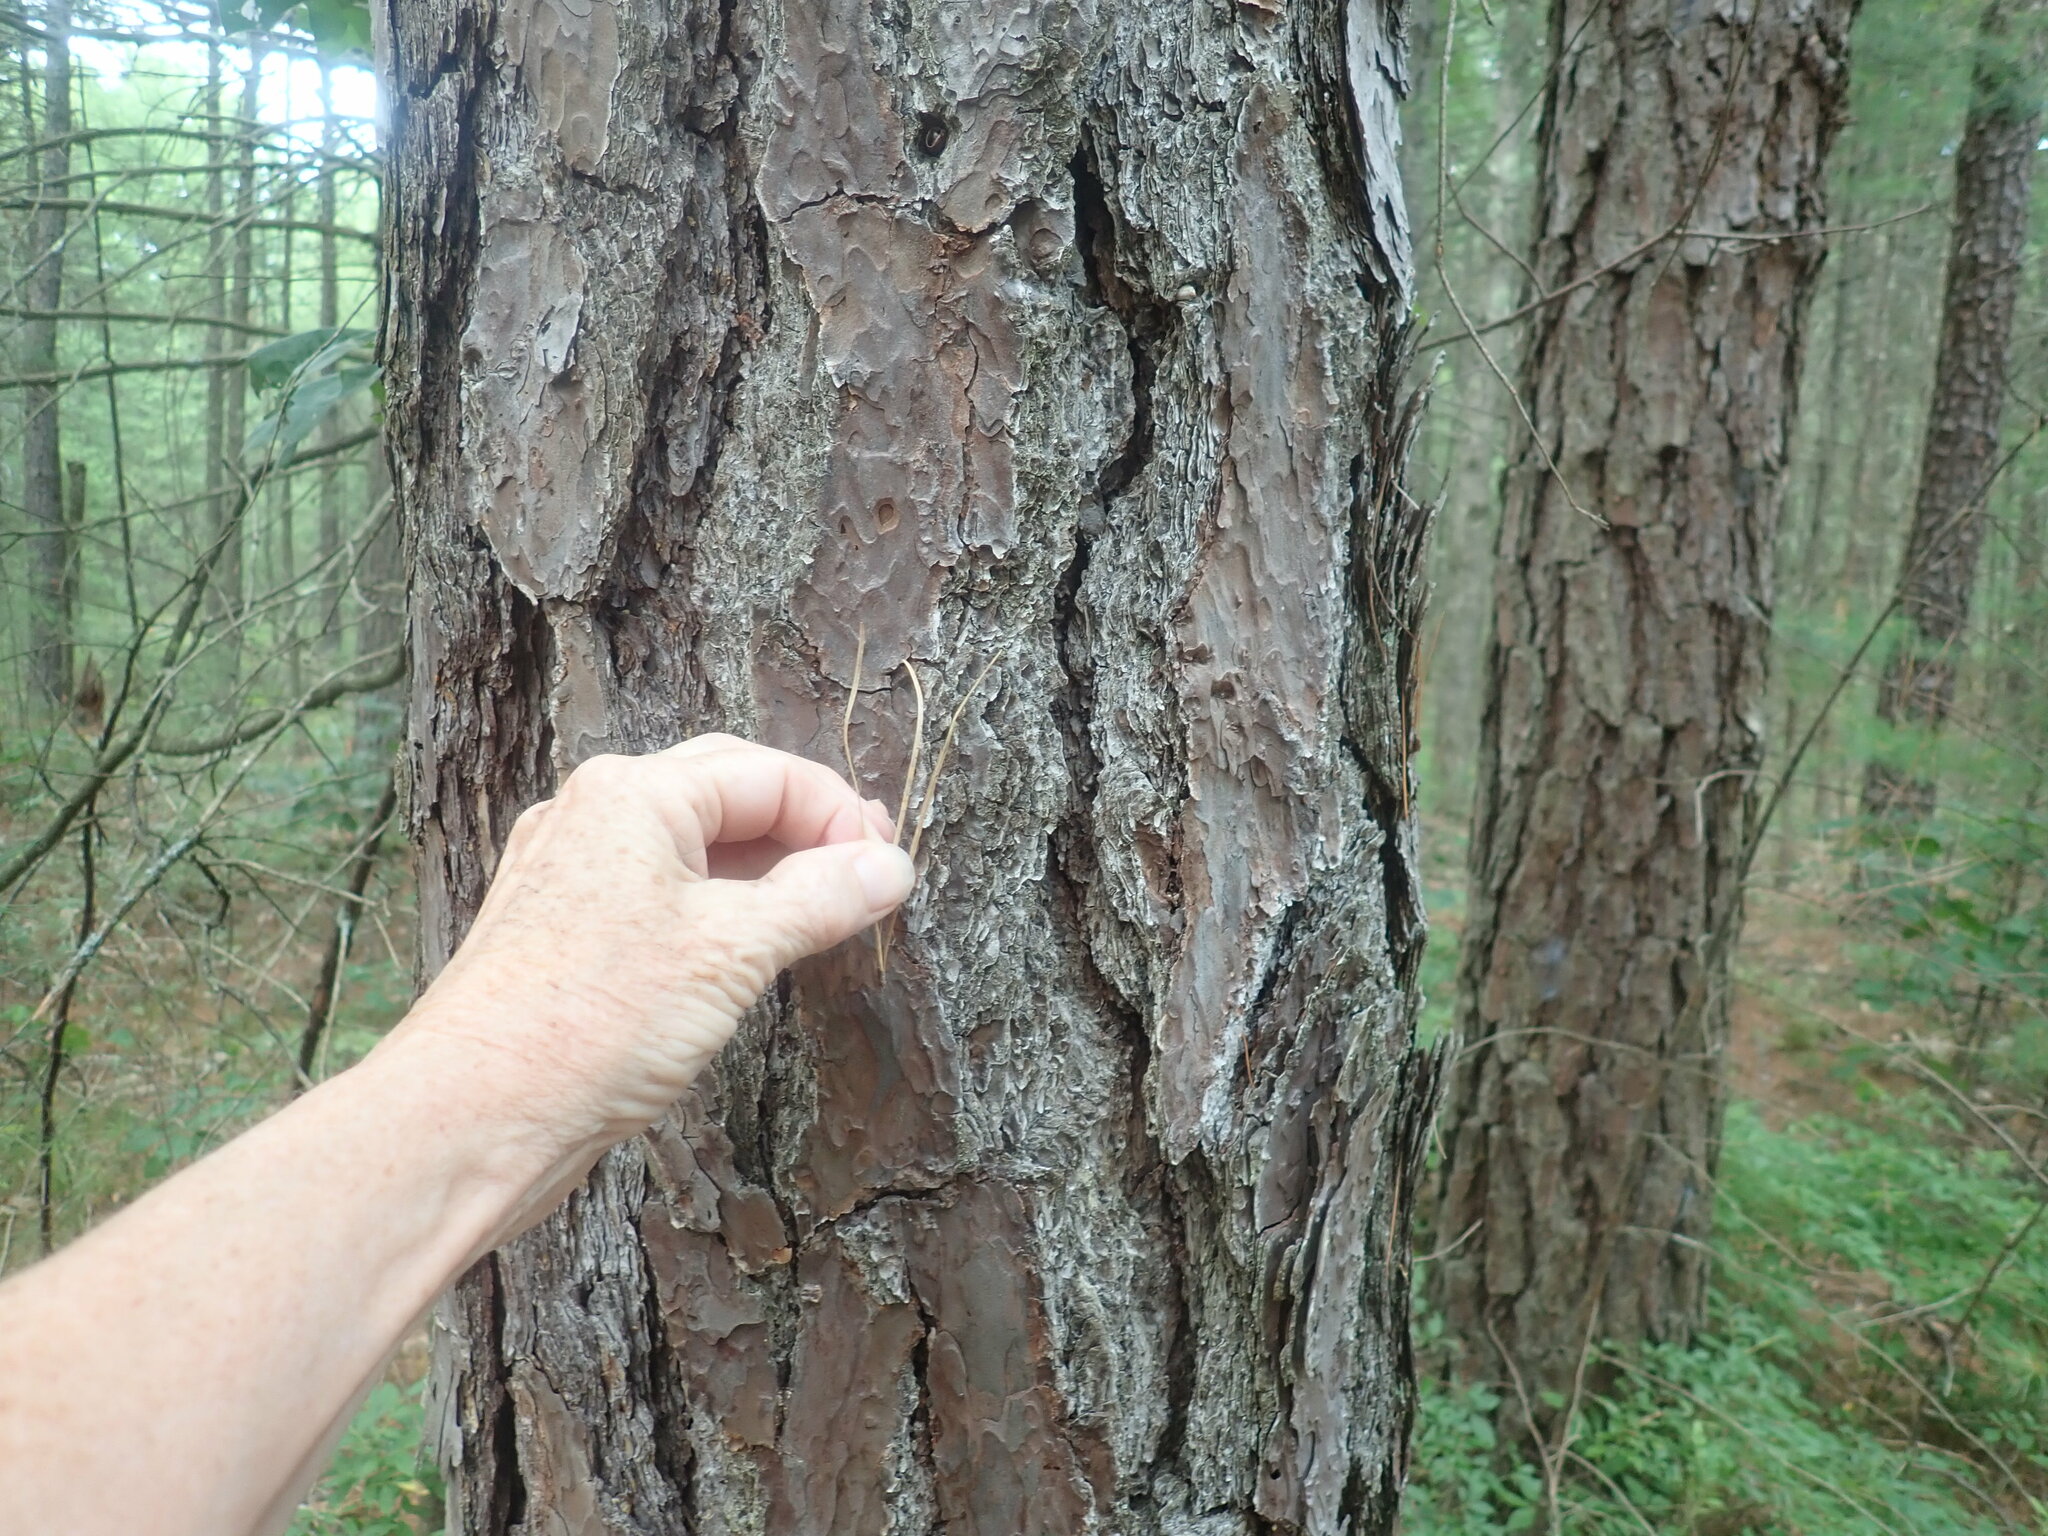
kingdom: Plantae
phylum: Tracheophyta
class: Pinopsida
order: Pinales
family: Pinaceae
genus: Pinus
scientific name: Pinus rigida
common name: Pitch pine
